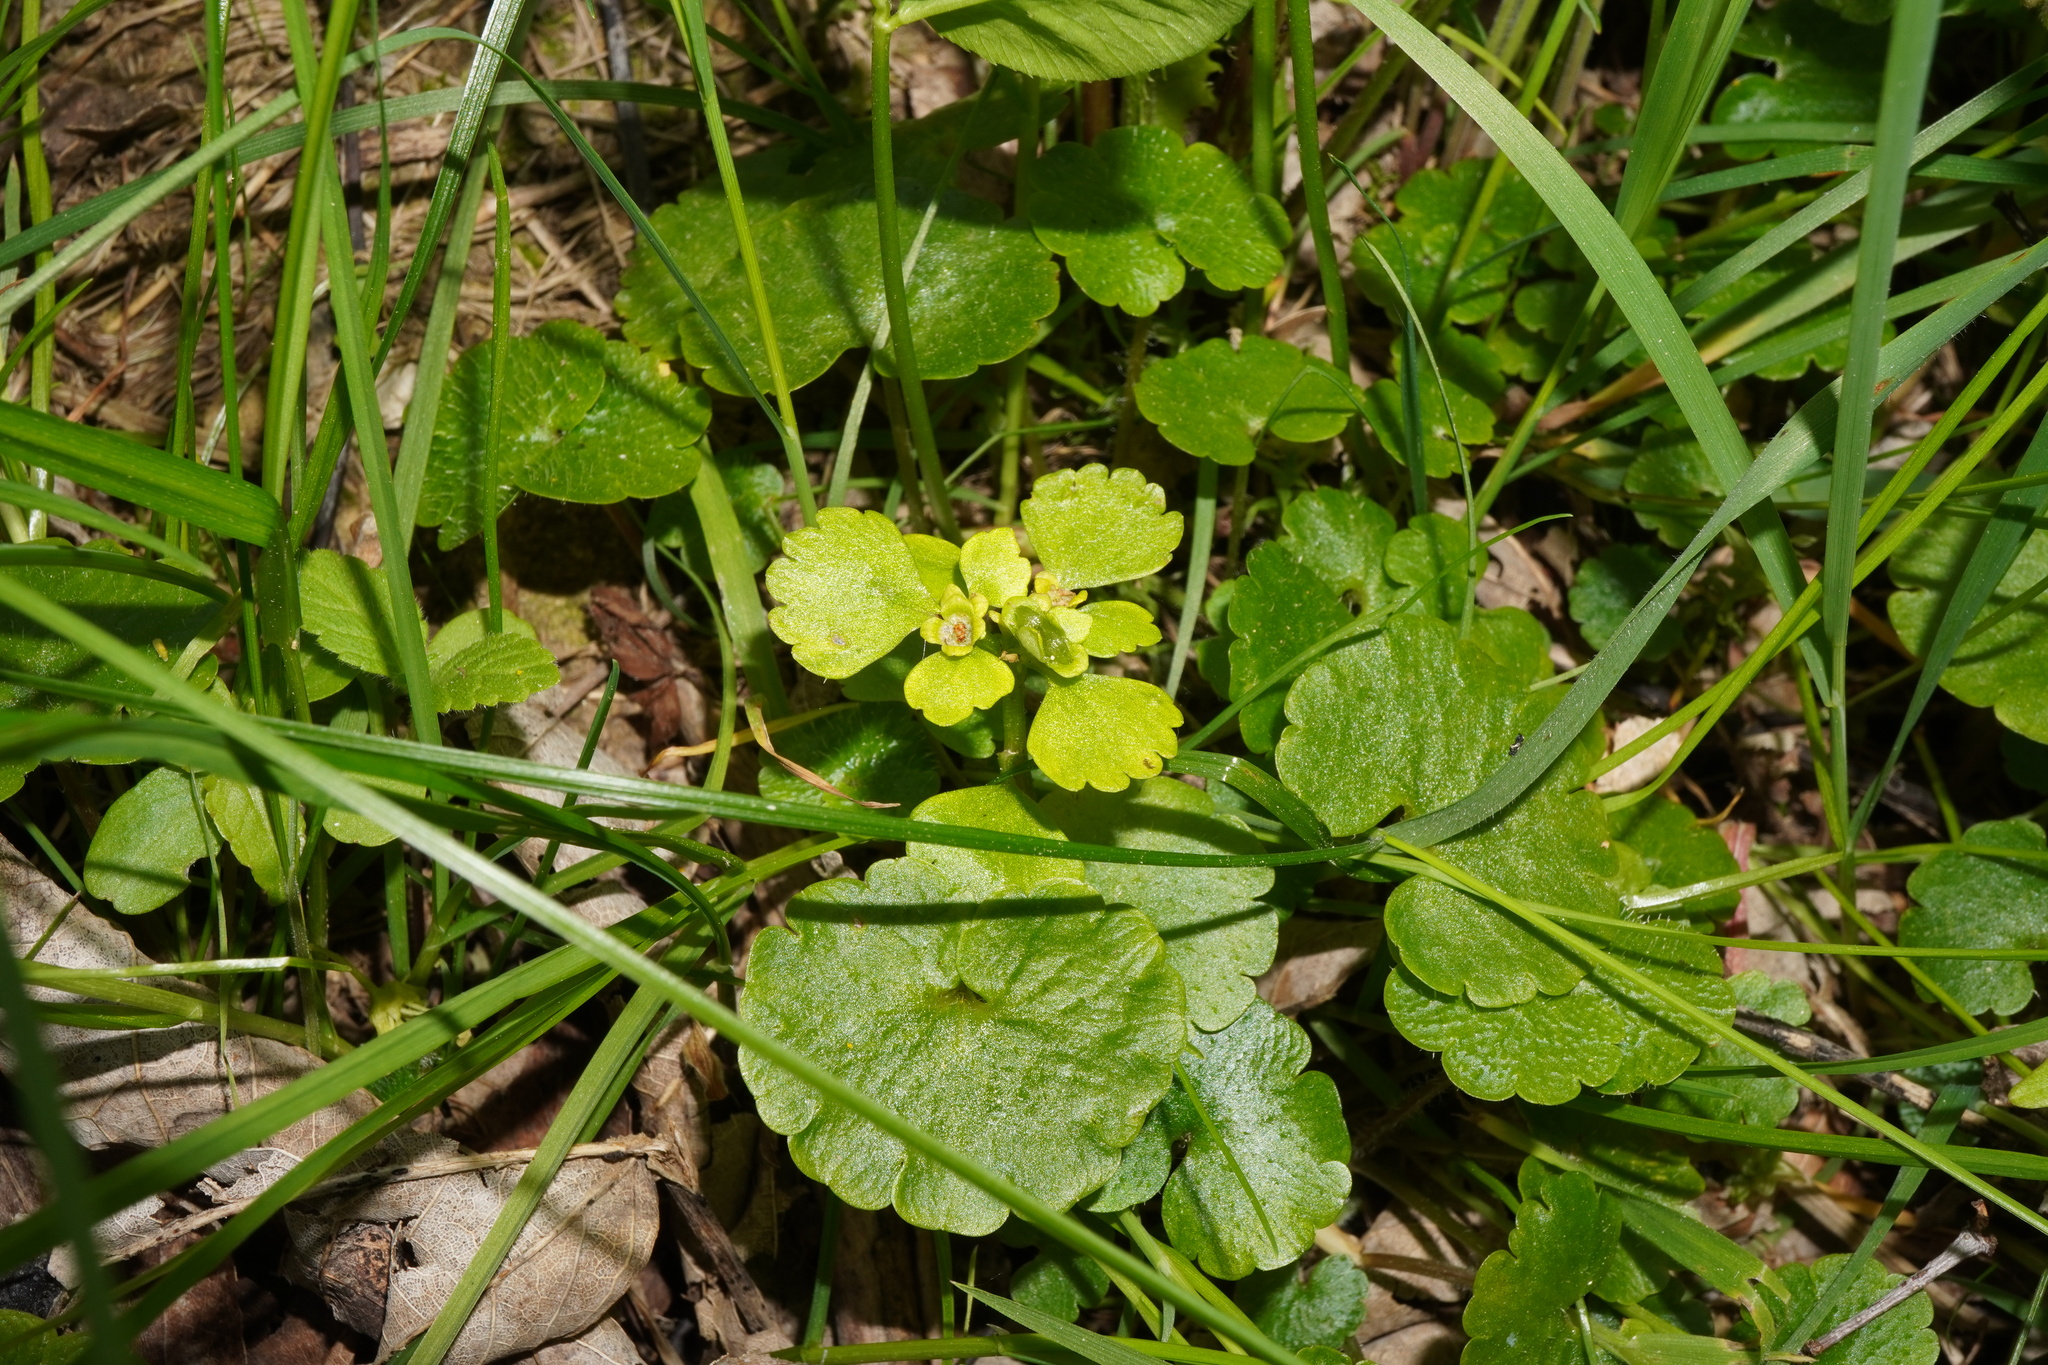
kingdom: Plantae
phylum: Tracheophyta
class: Magnoliopsida
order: Saxifragales
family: Saxifragaceae
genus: Chrysosplenium
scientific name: Chrysosplenium alternifolium
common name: Alternate-leaved golden-saxifrage
